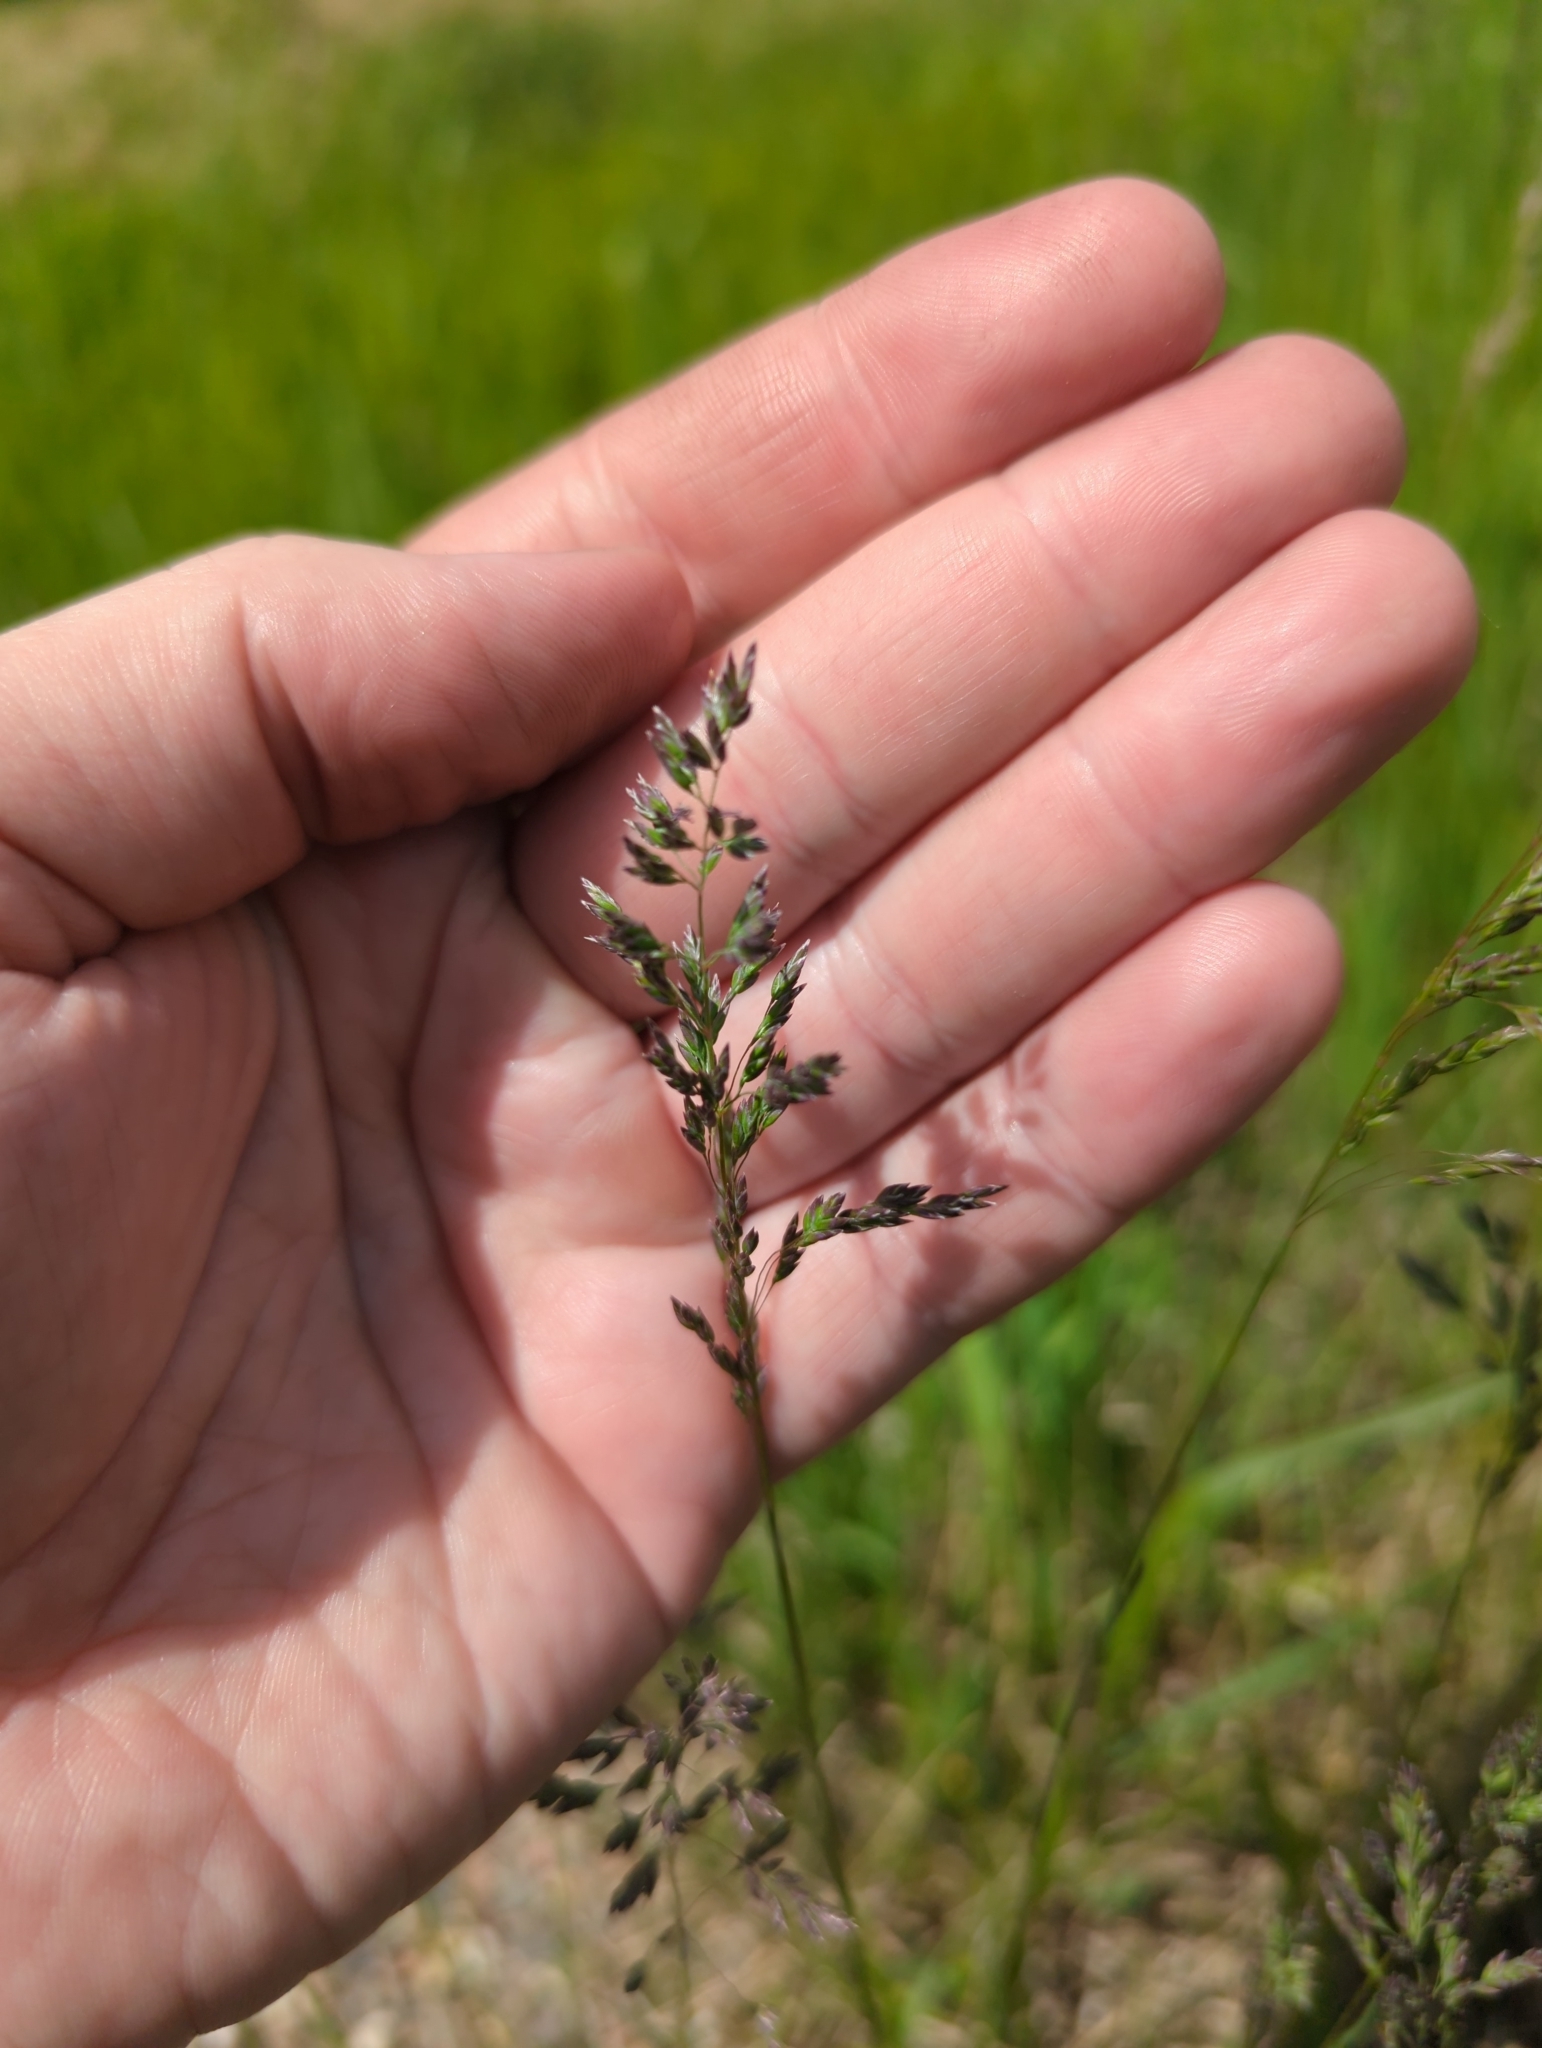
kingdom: Plantae
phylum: Tracheophyta
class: Liliopsida
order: Poales
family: Poaceae
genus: Poa
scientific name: Poa pratensis
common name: Kentucky bluegrass
